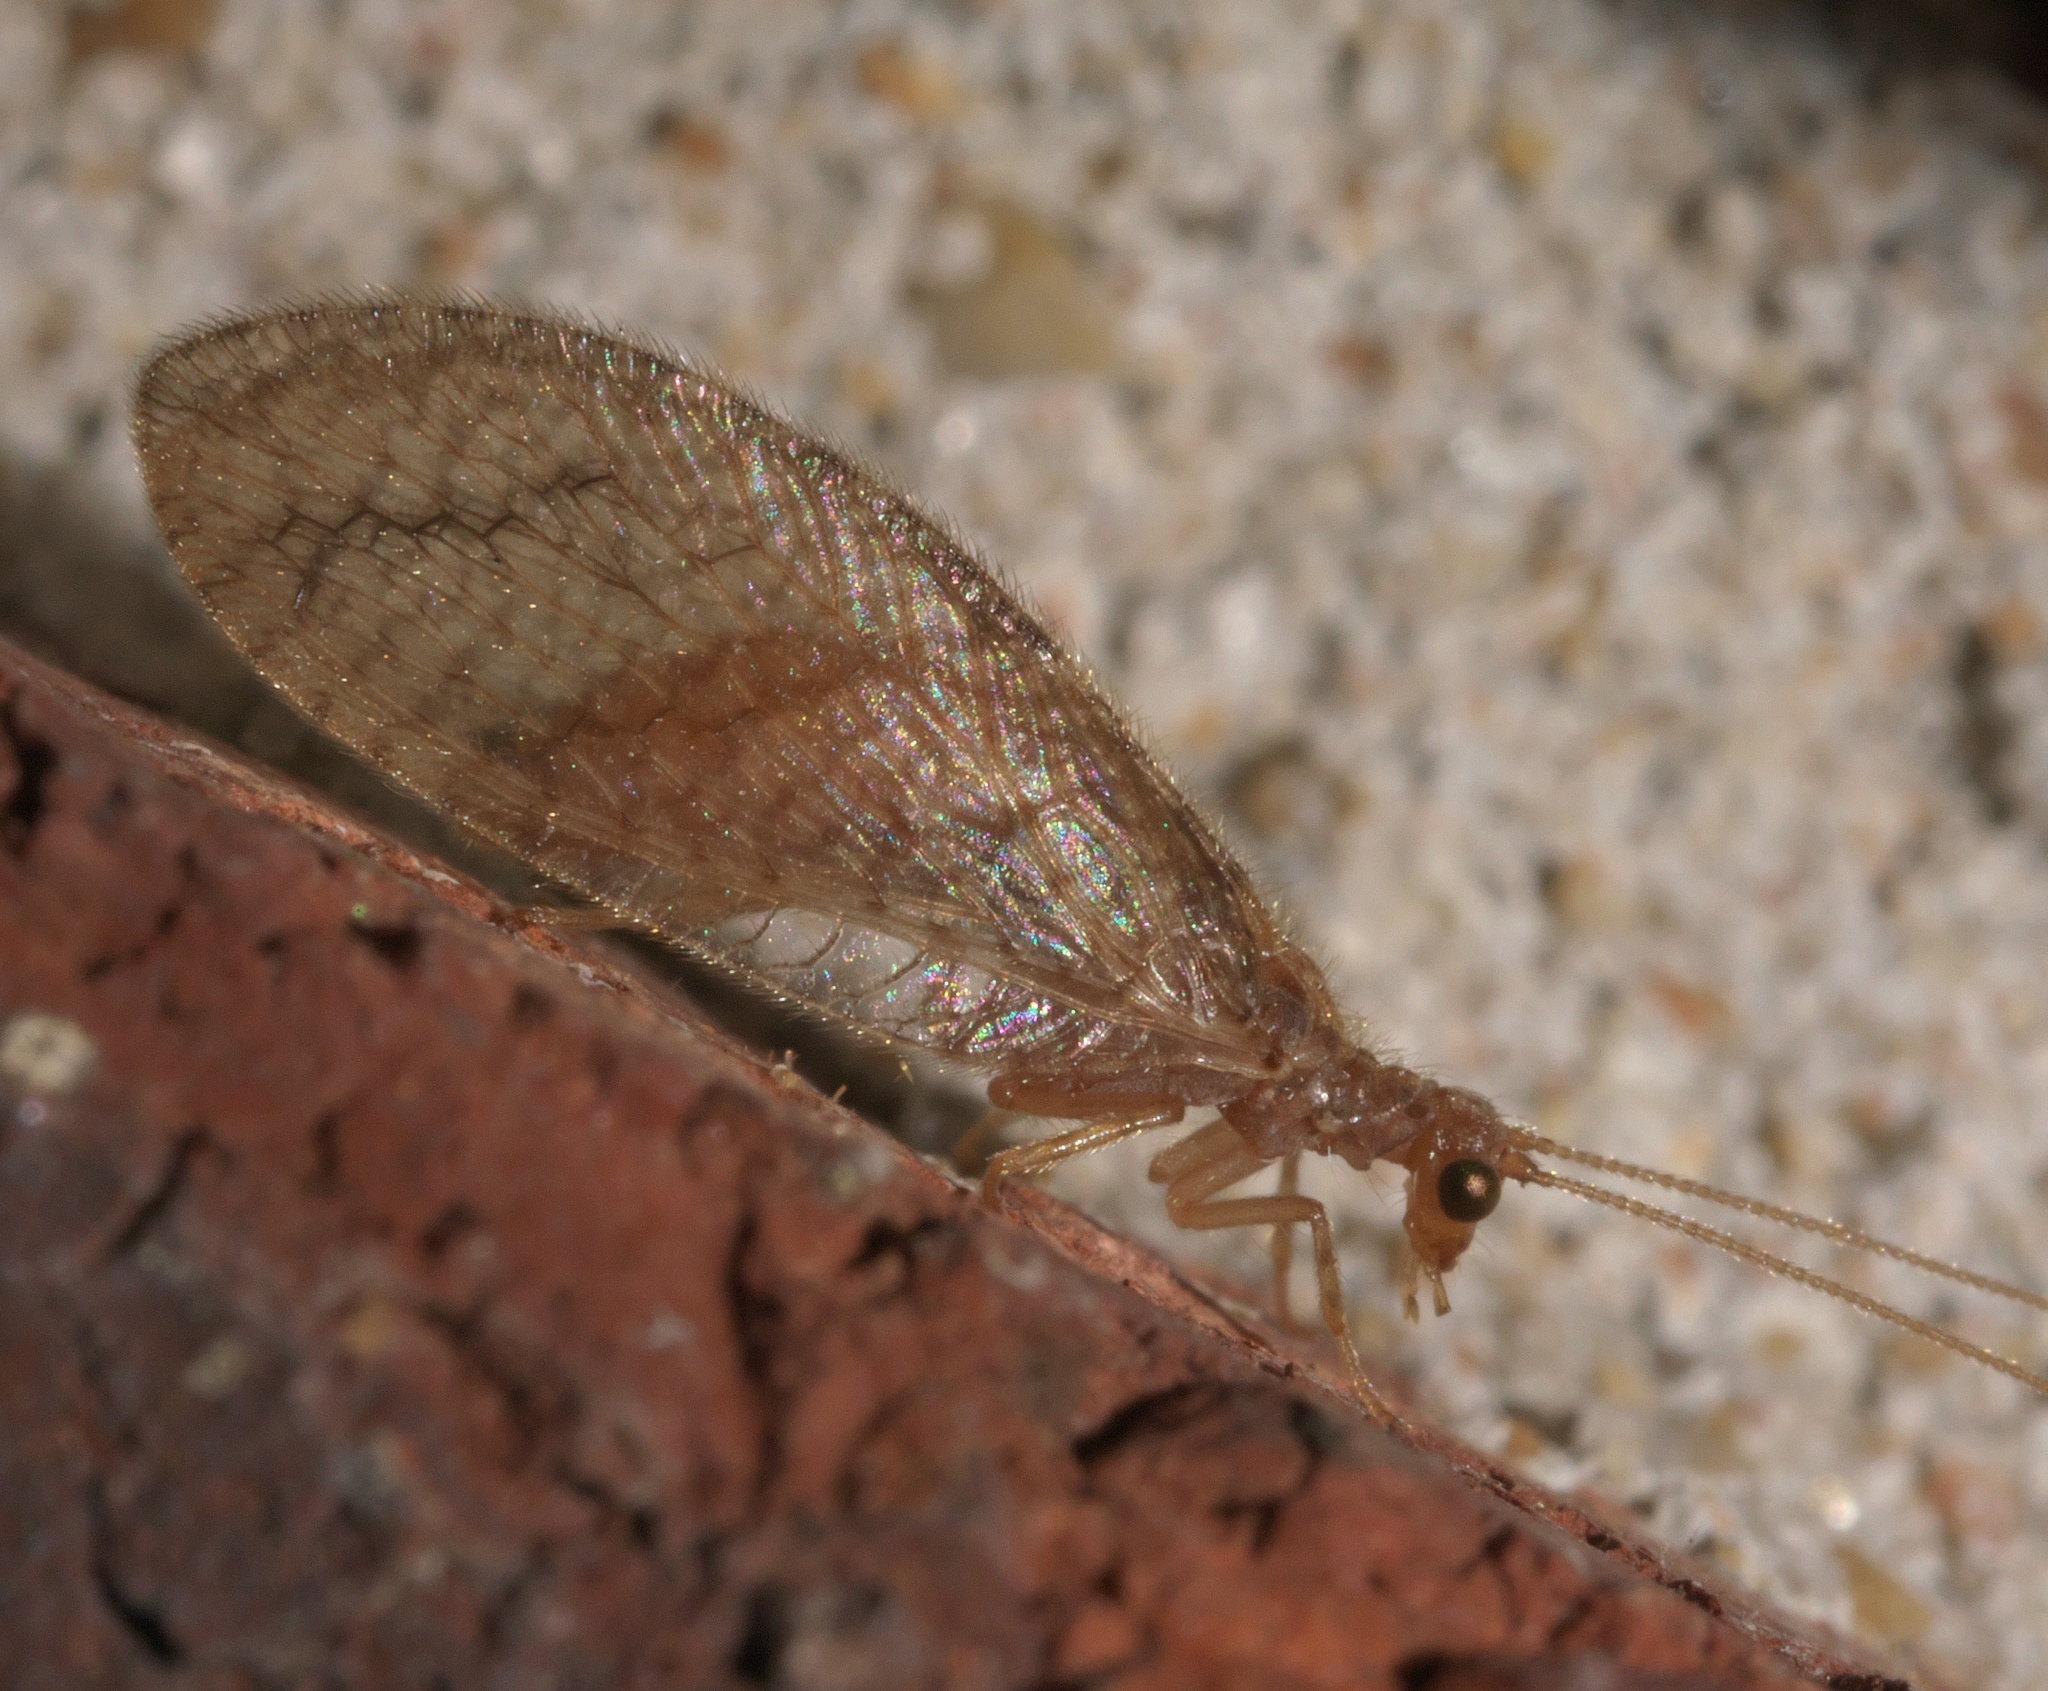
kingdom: Animalia
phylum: Arthropoda
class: Insecta
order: Neuroptera
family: Hemerobiidae
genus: Micromus
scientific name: Micromus posticus
